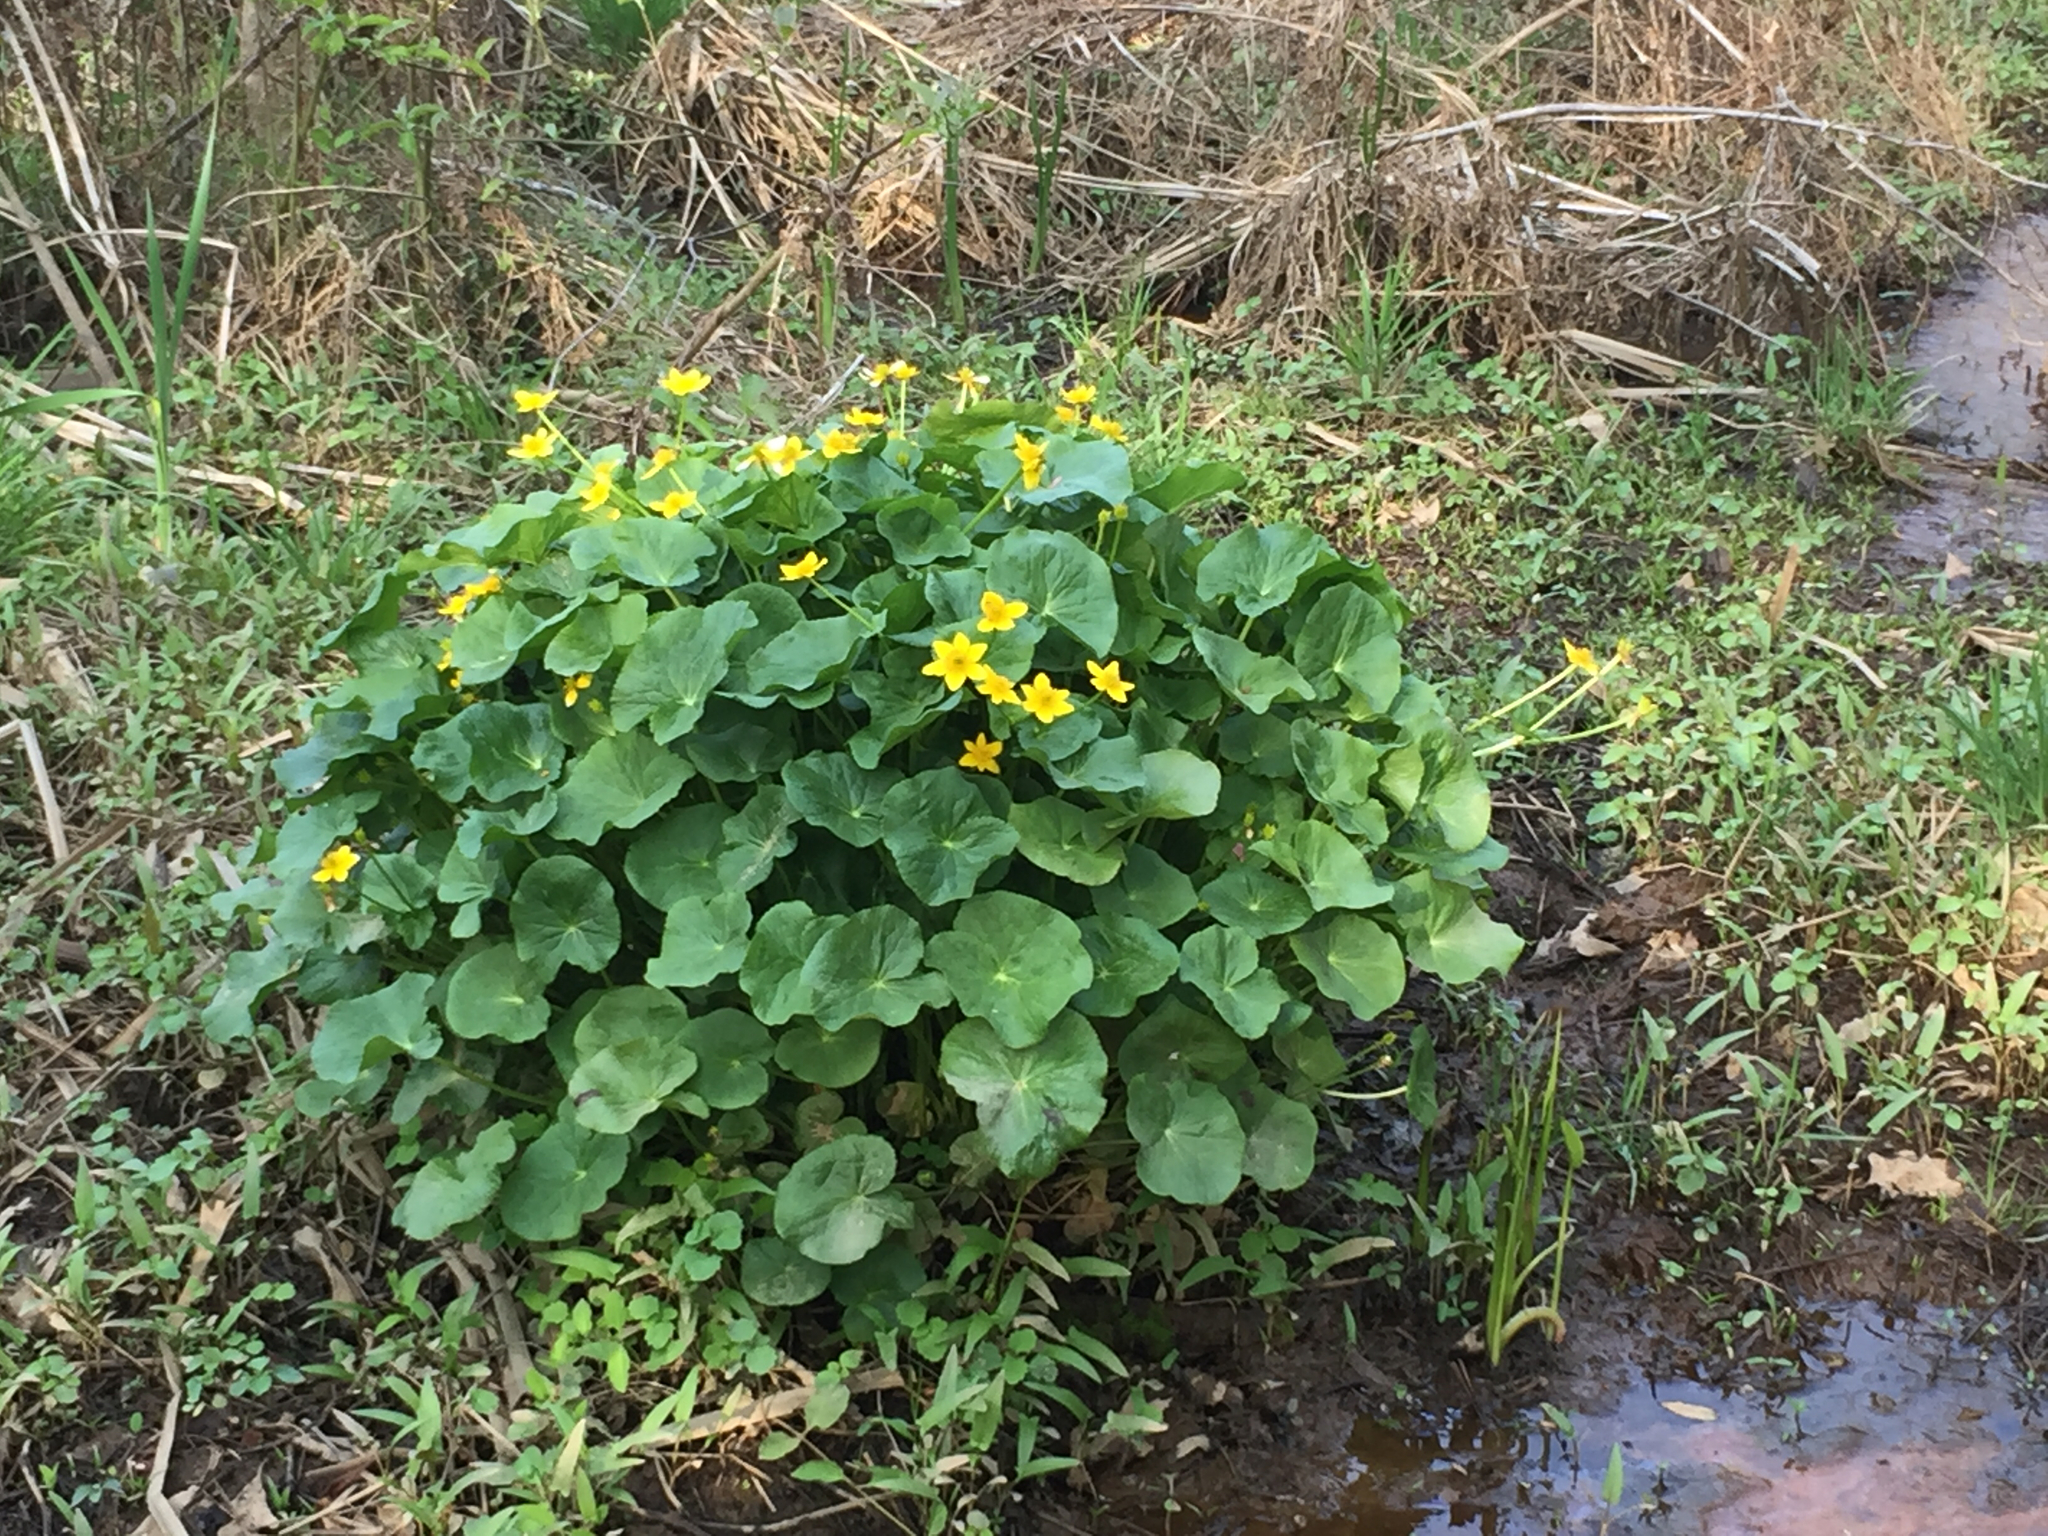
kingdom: Plantae
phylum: Tracheophyta
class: Magnoliopsida
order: Ranunculales
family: Ranunculaceae
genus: Caltha
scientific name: Caltha palustris
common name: Marsh marigold
